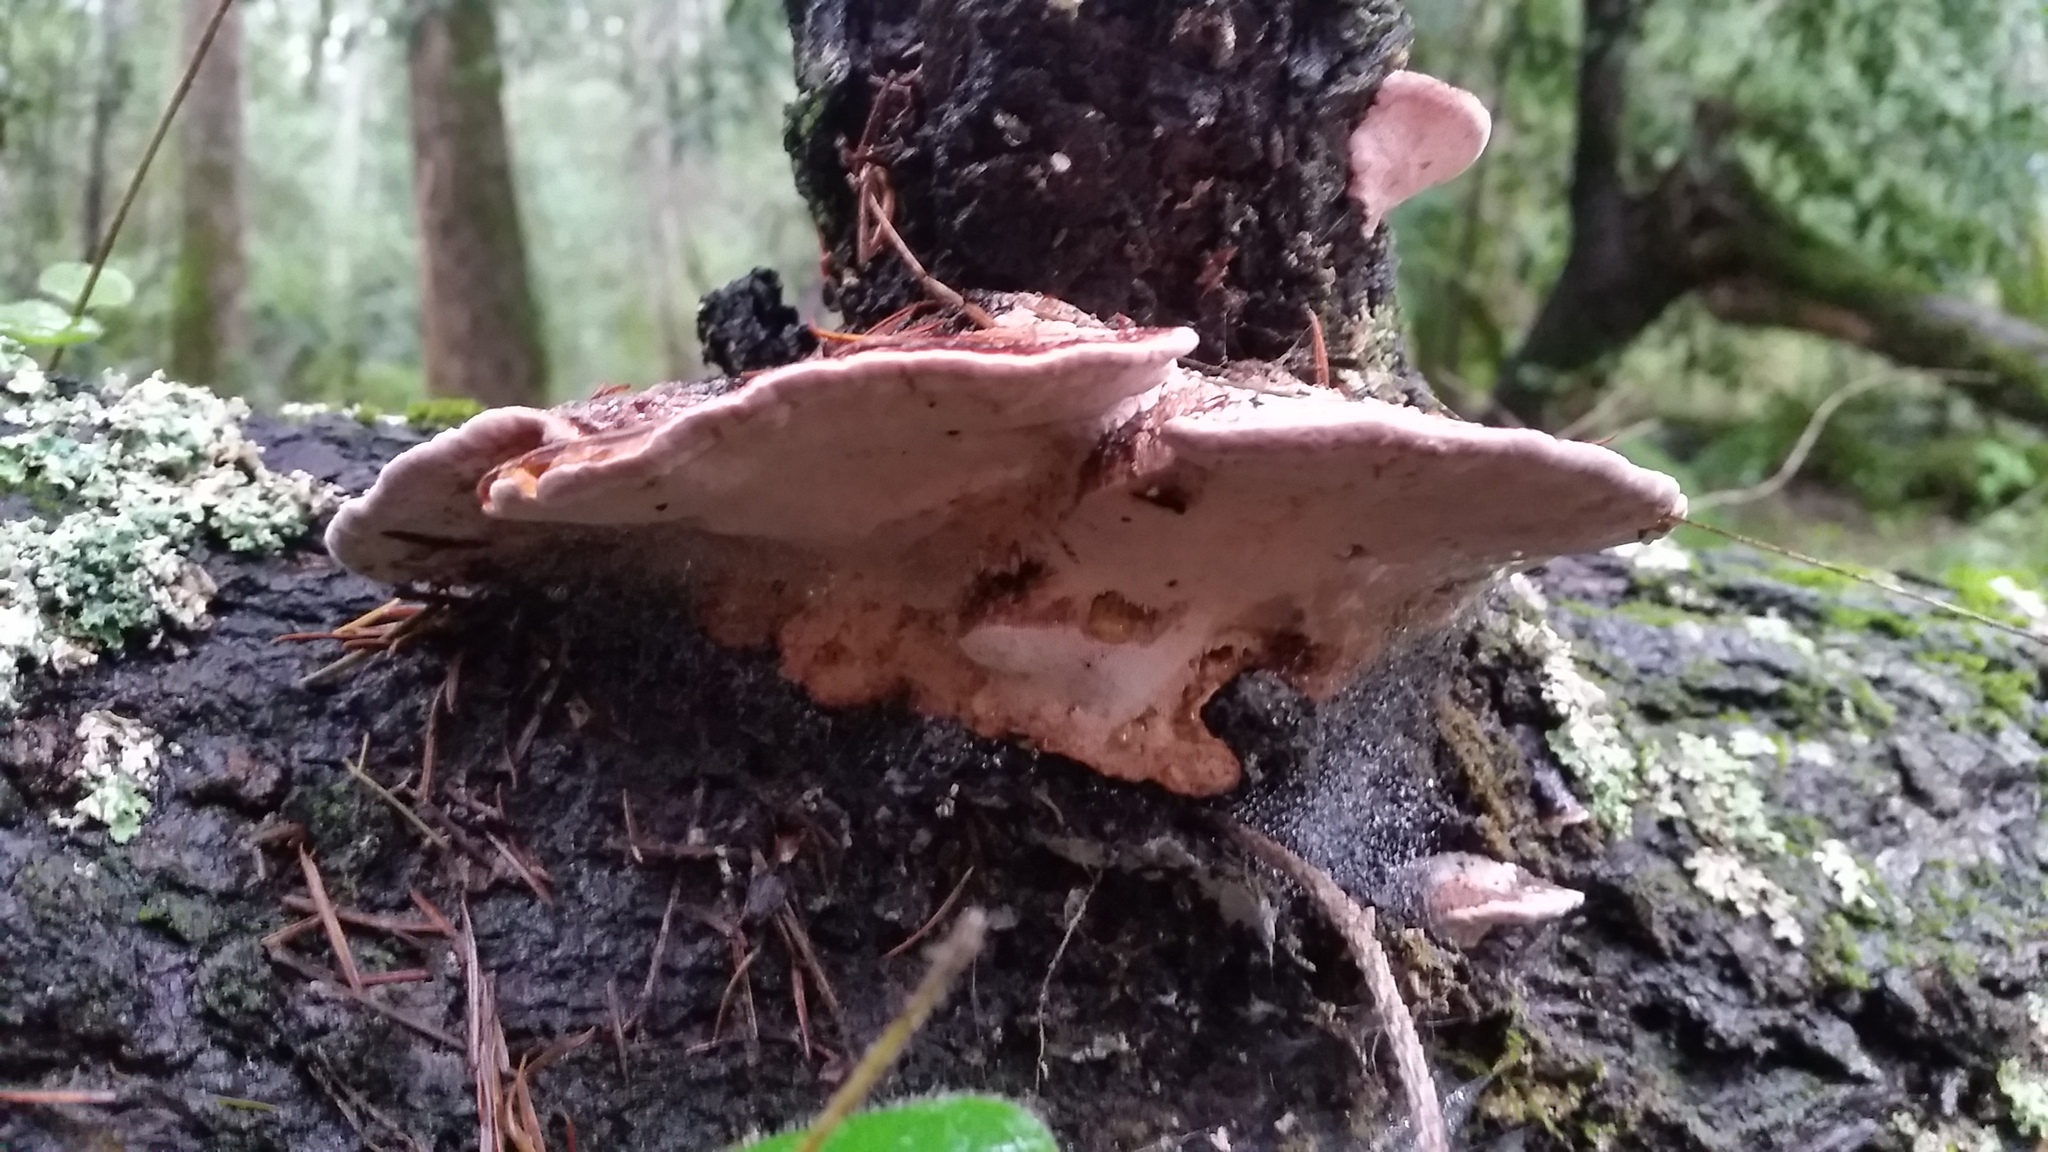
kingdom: Fungi
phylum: Basidiomycota
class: Agaricomycetes
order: Polyporales
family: Fomitopsidaceae
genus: Rhodofomes
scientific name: Rhodofomes cajanderi
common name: Rosy conk
